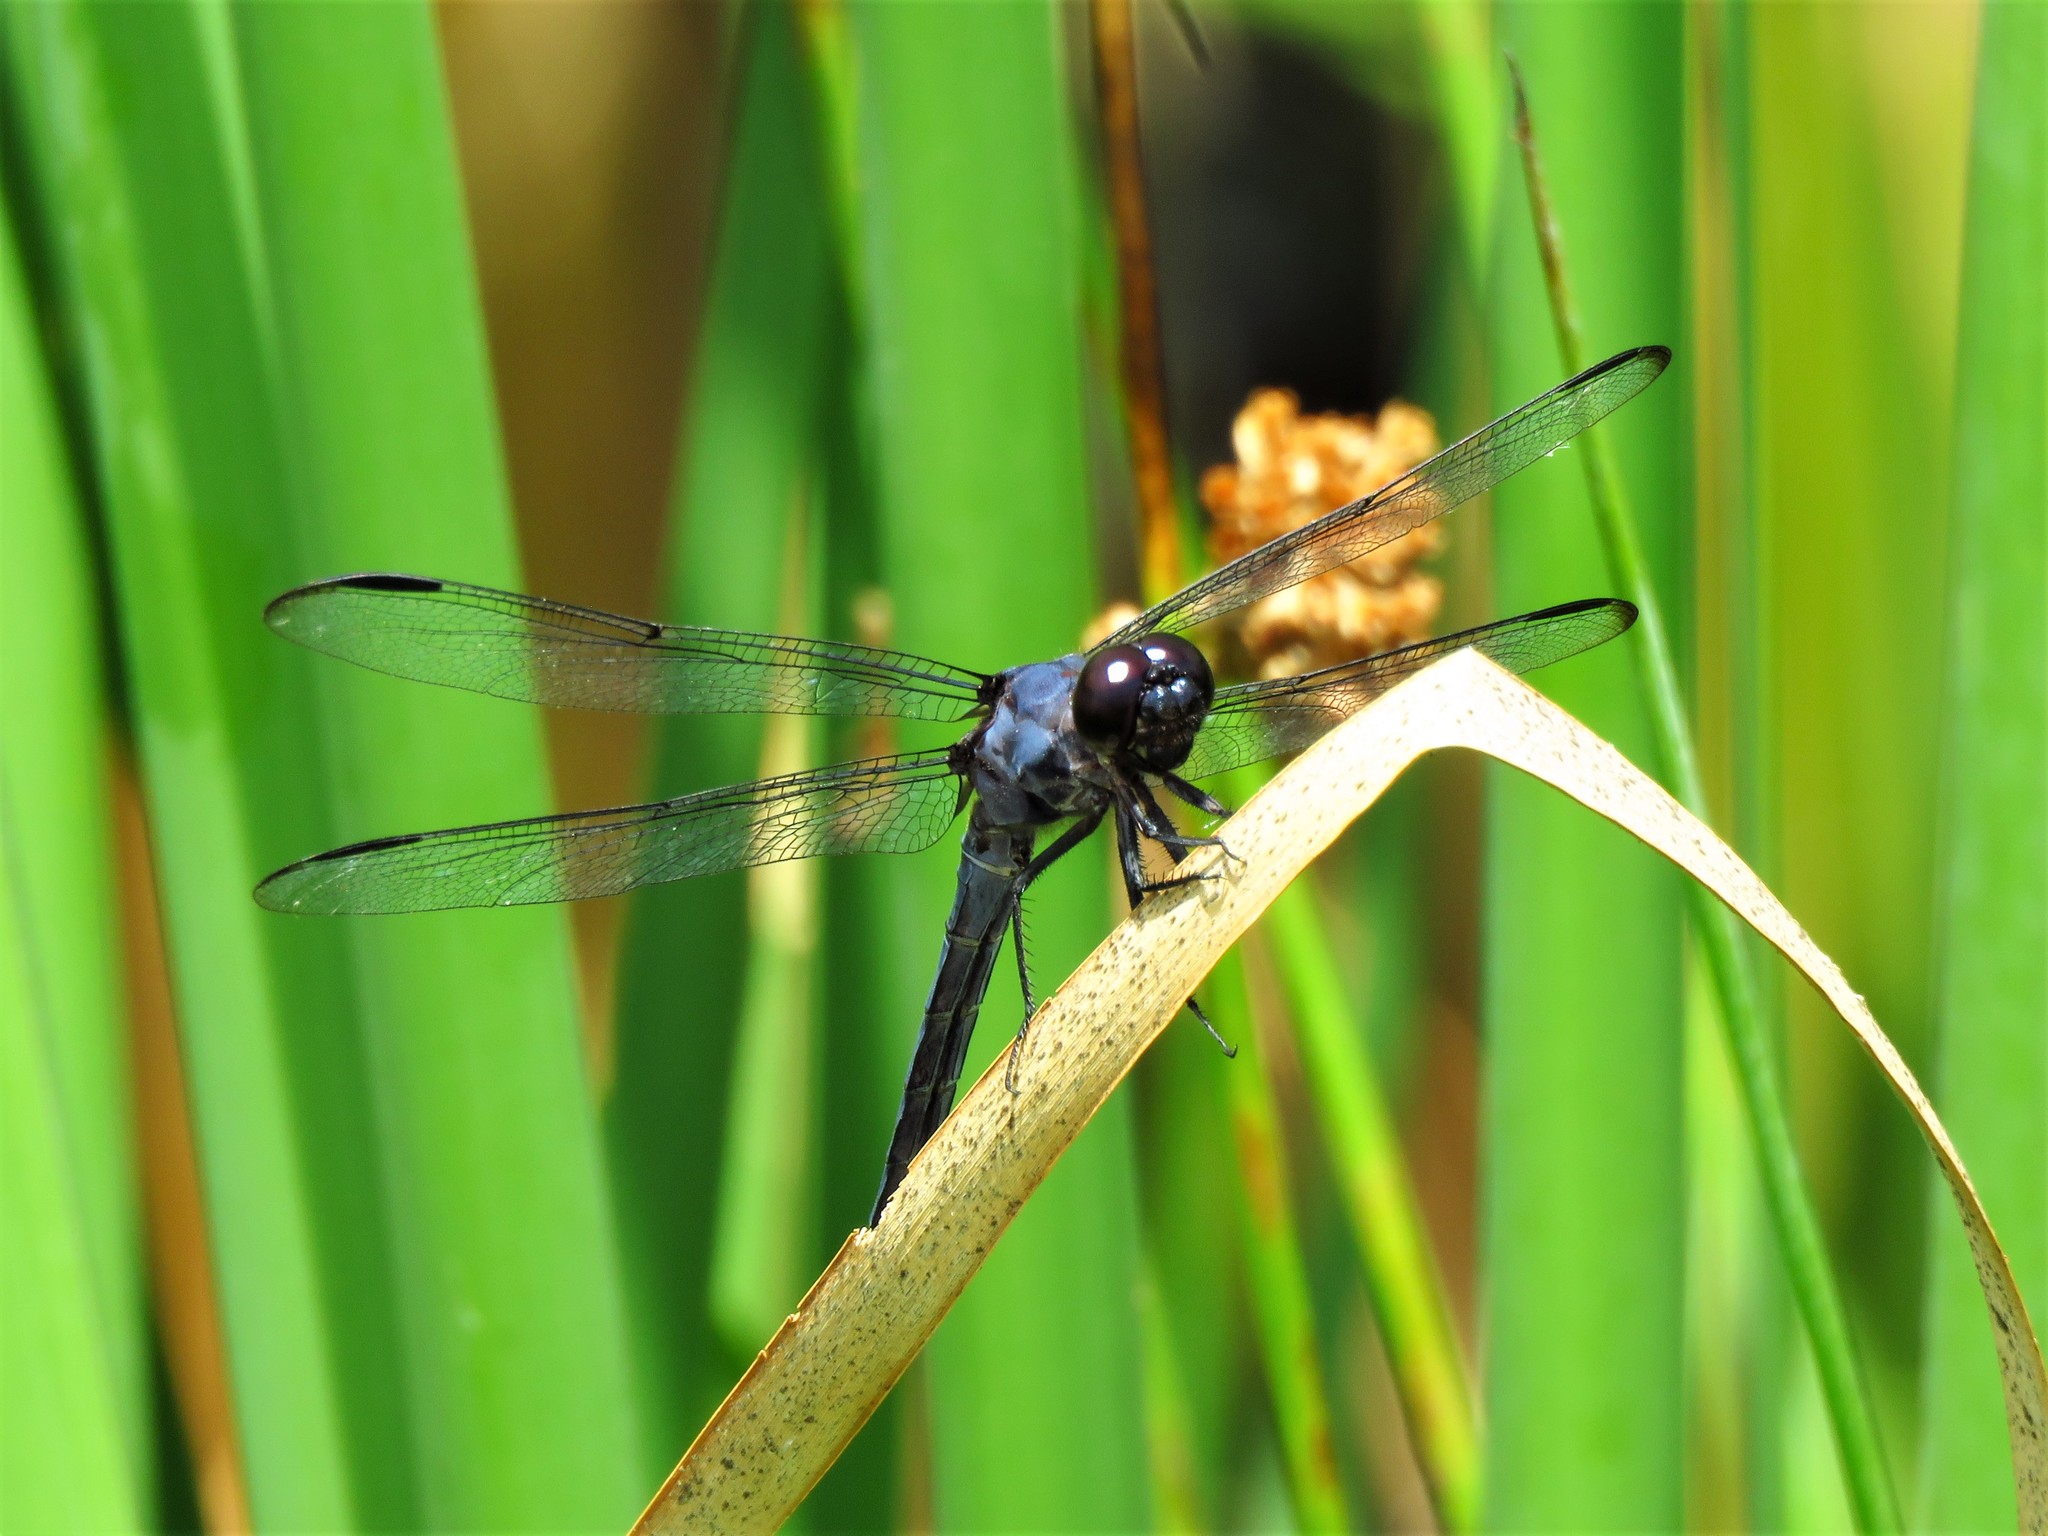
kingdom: Animalia
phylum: Arthropoda
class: Insecta
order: Odonata
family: Libellulidae
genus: Libellula
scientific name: Libellula incesta
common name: Slaty skimmer
